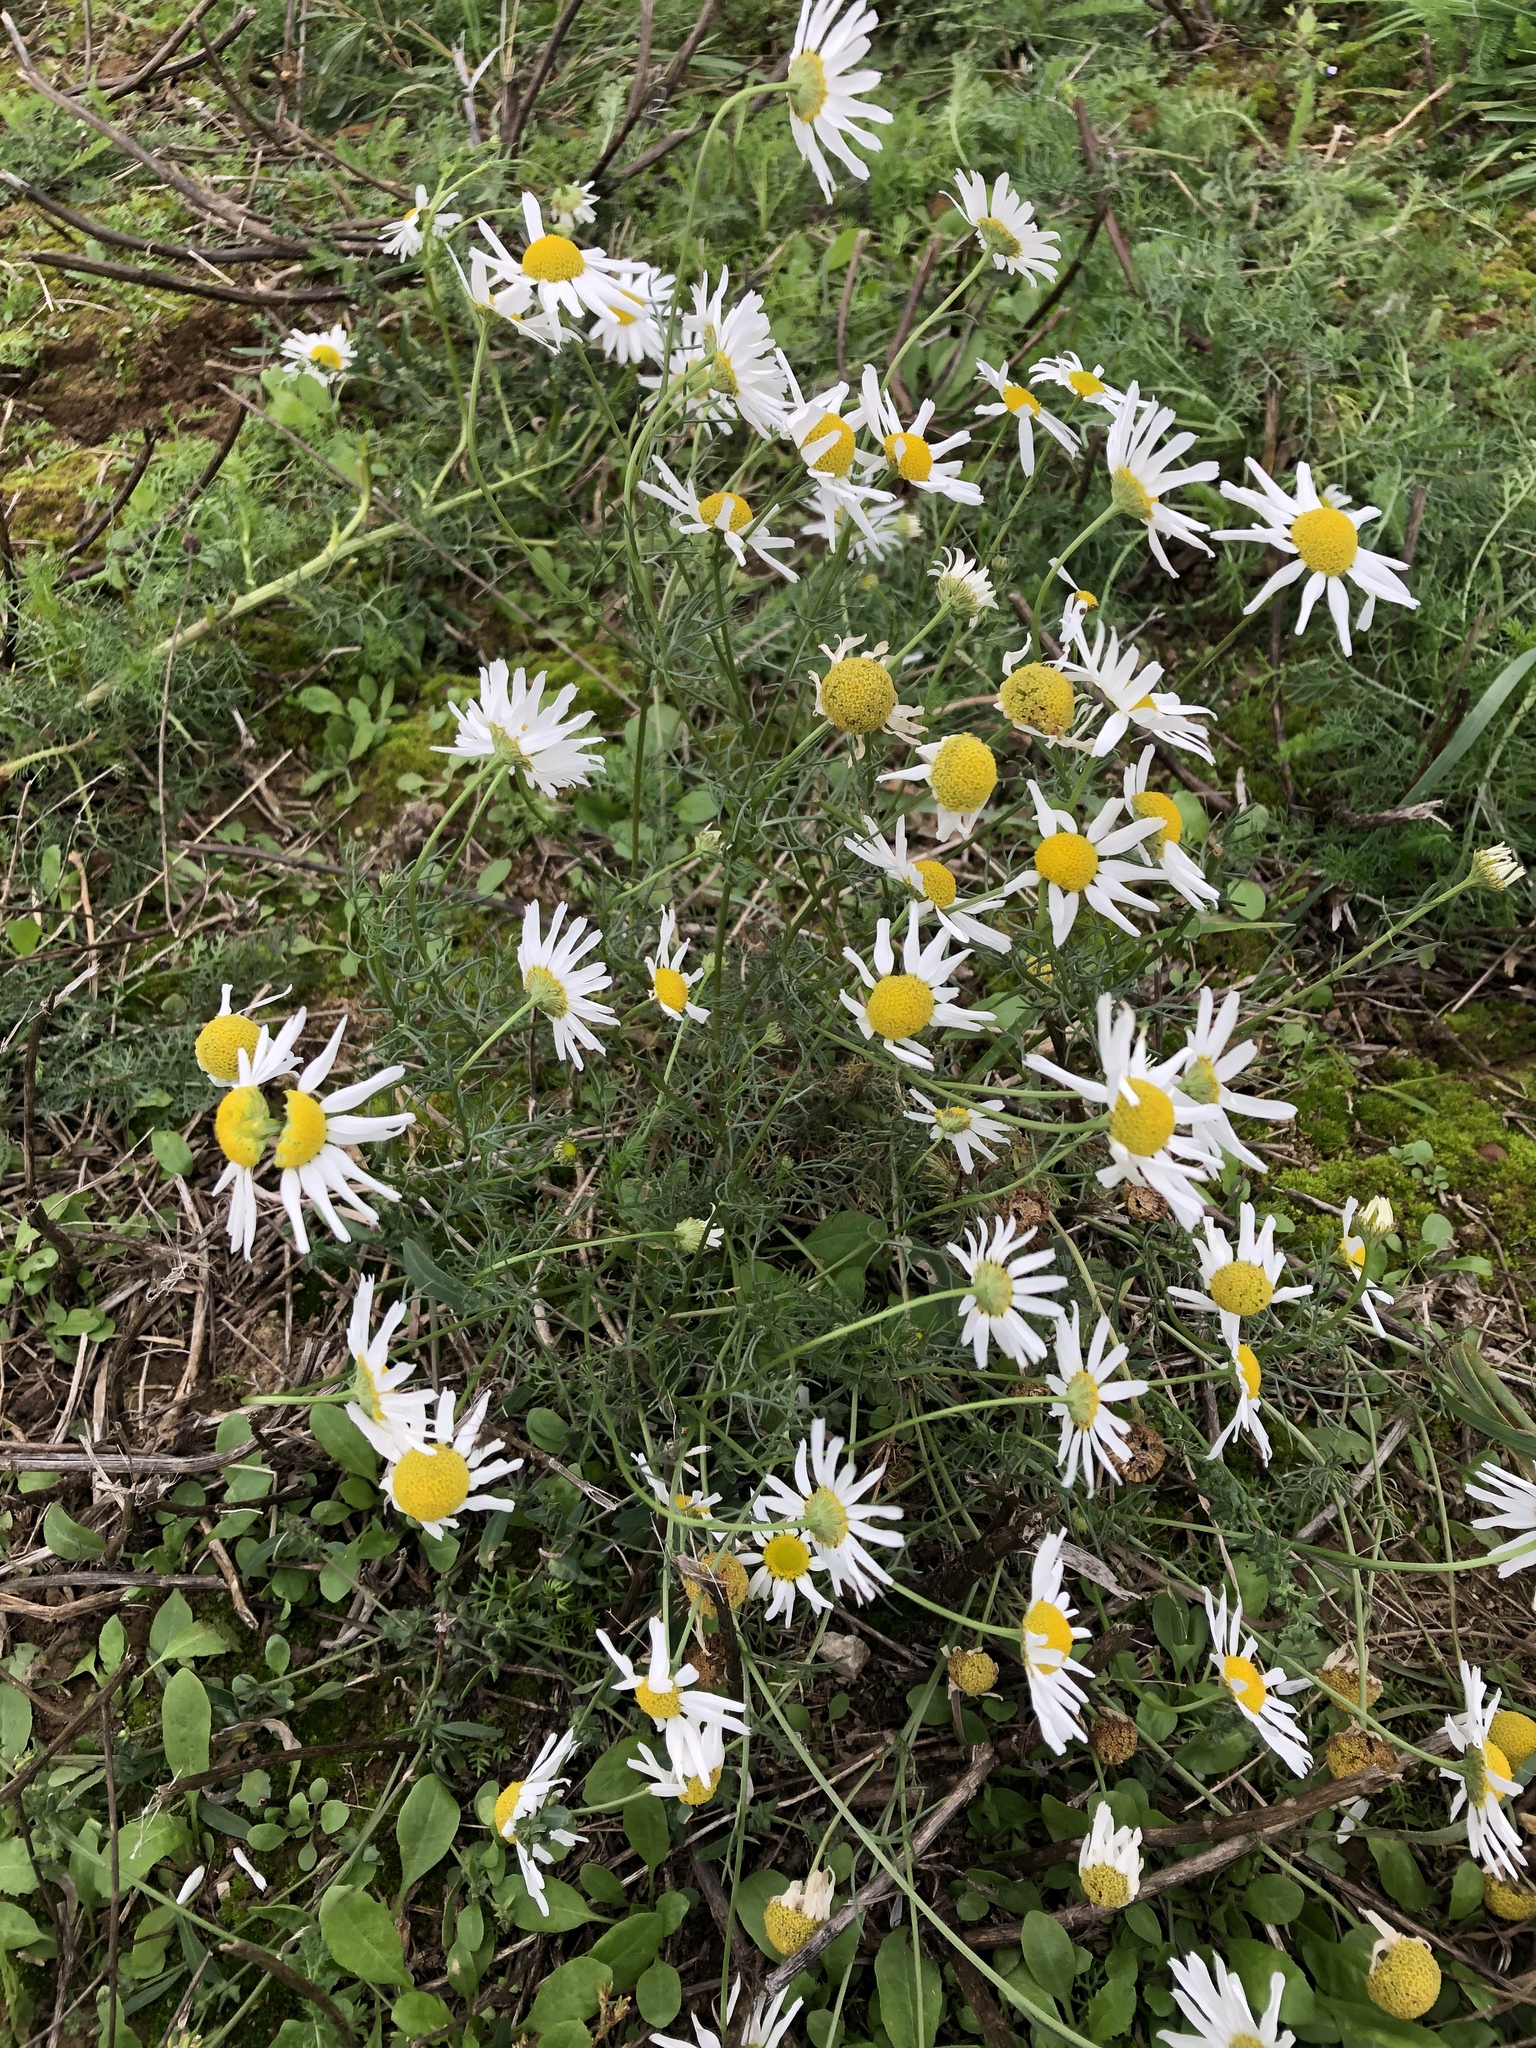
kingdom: Plantae
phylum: Tracheophyta
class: Magnoliopsida
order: Asterales
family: Asteraceae
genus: Tripleurospermum
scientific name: Tripleurospermum inodorum
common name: Scentless mayweed
